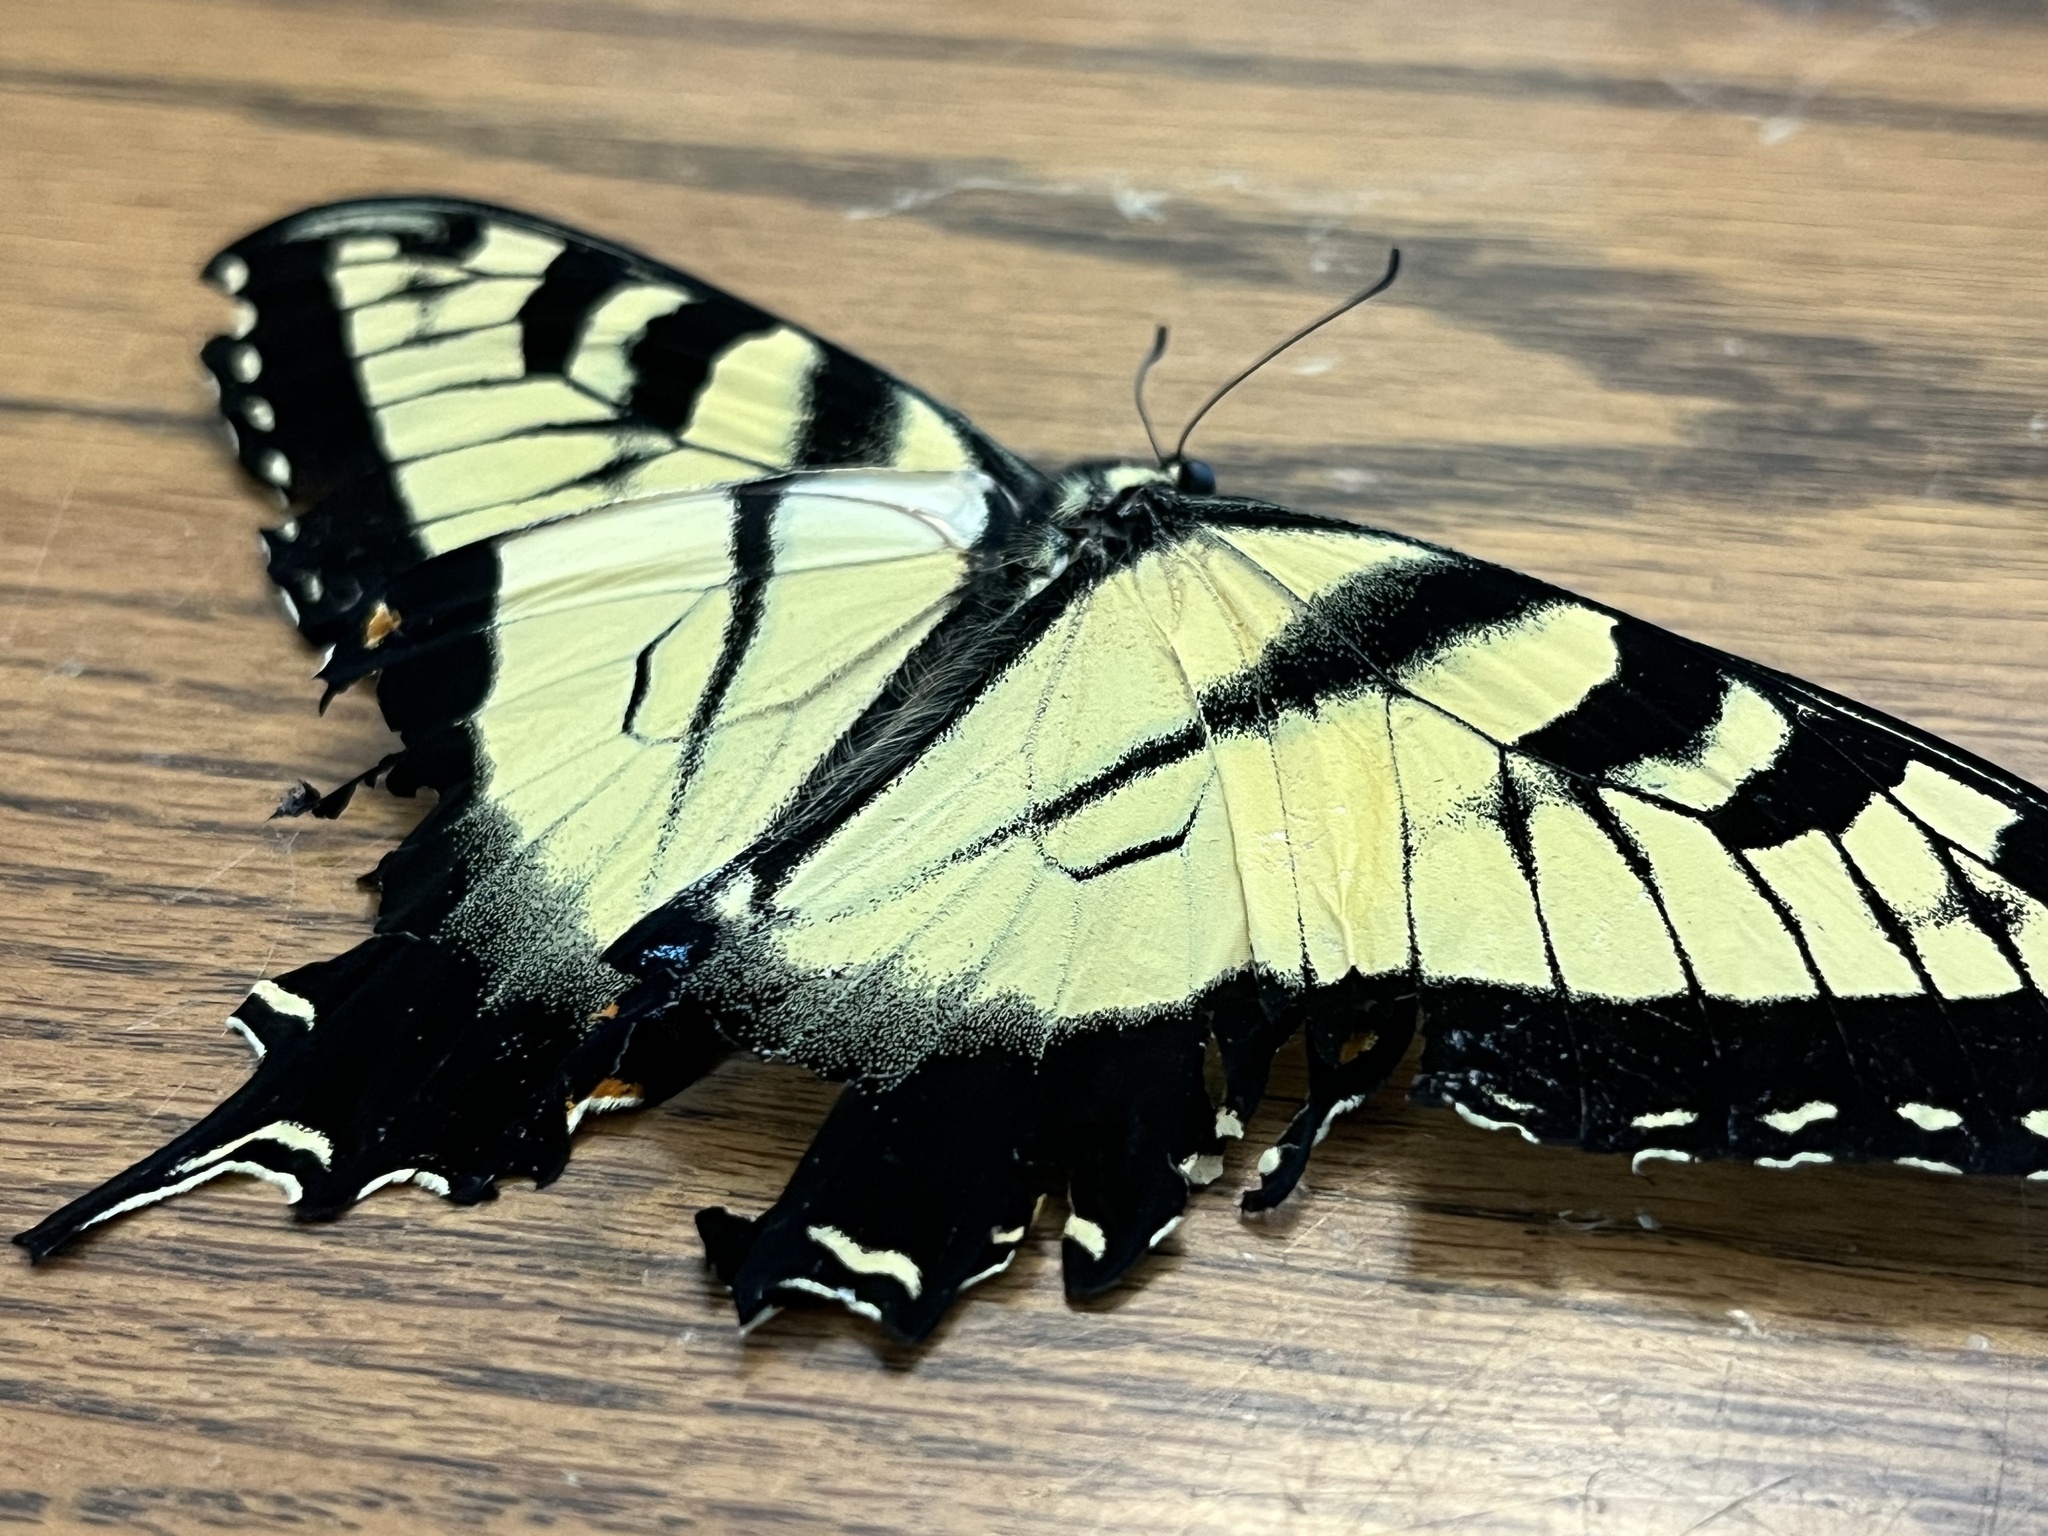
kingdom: Animalia
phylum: Arthropoda
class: Insecta
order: Lepidoptera
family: Papilionidae
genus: Papilio
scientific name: Papilio glaucus
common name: Tiger swallowtail
